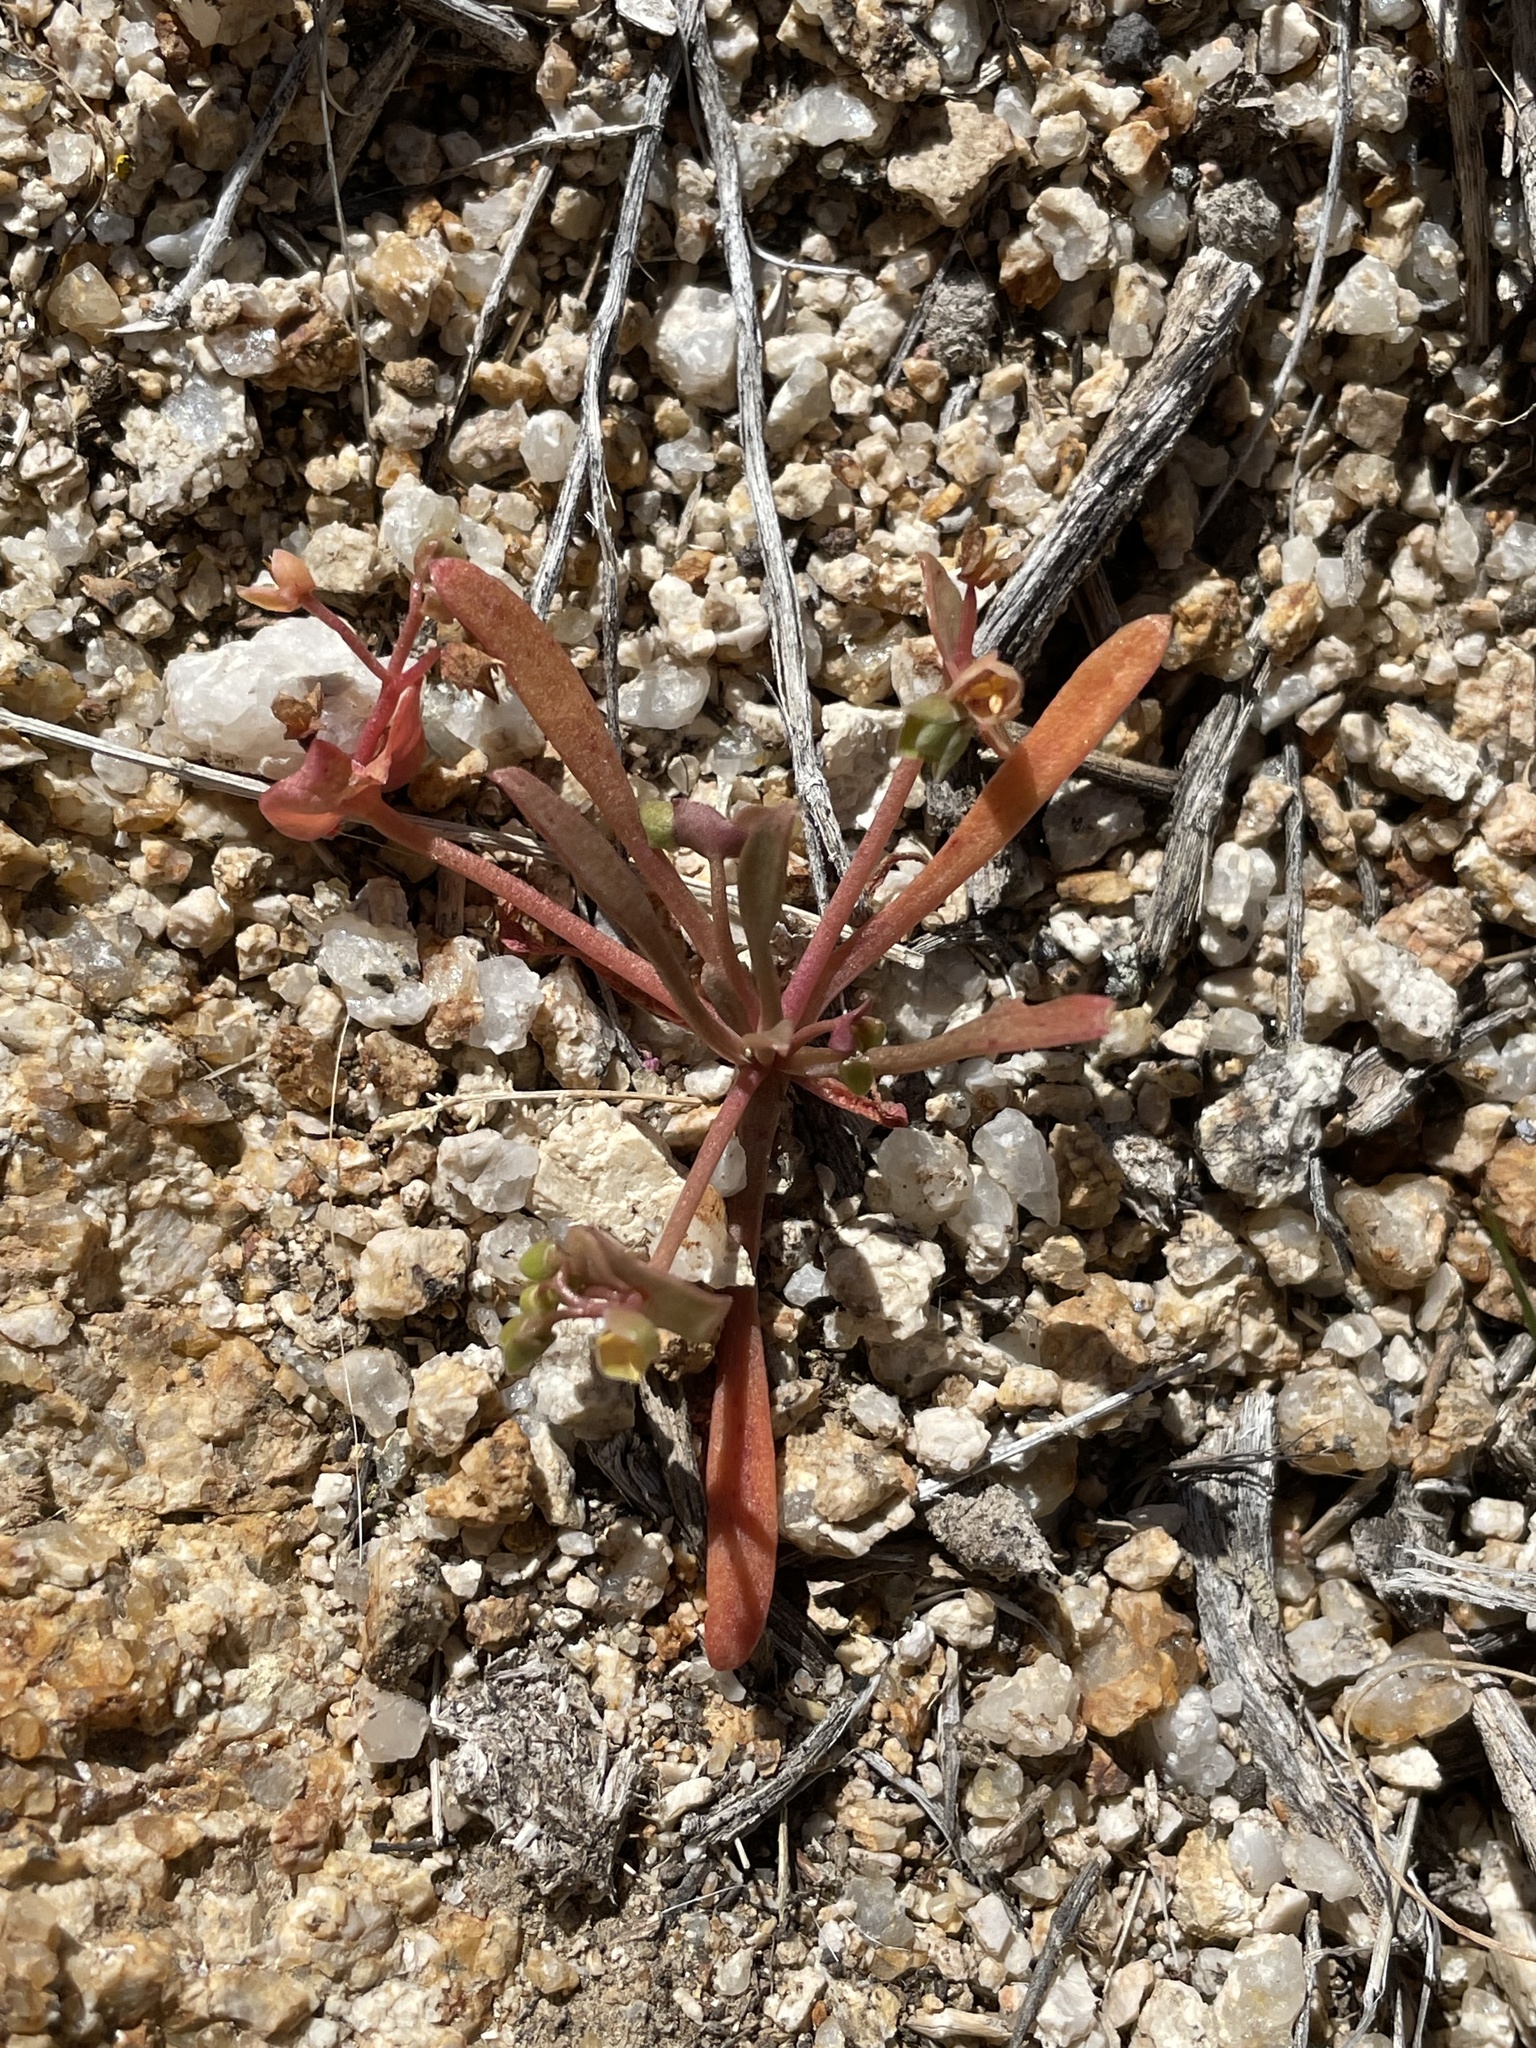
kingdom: Plantae
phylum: Tracheophyta
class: Magnoliopsida
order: Caryophyllales
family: Montiaceae
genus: Claytonia
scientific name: Claytonia parviflora
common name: Indian-lettuce
